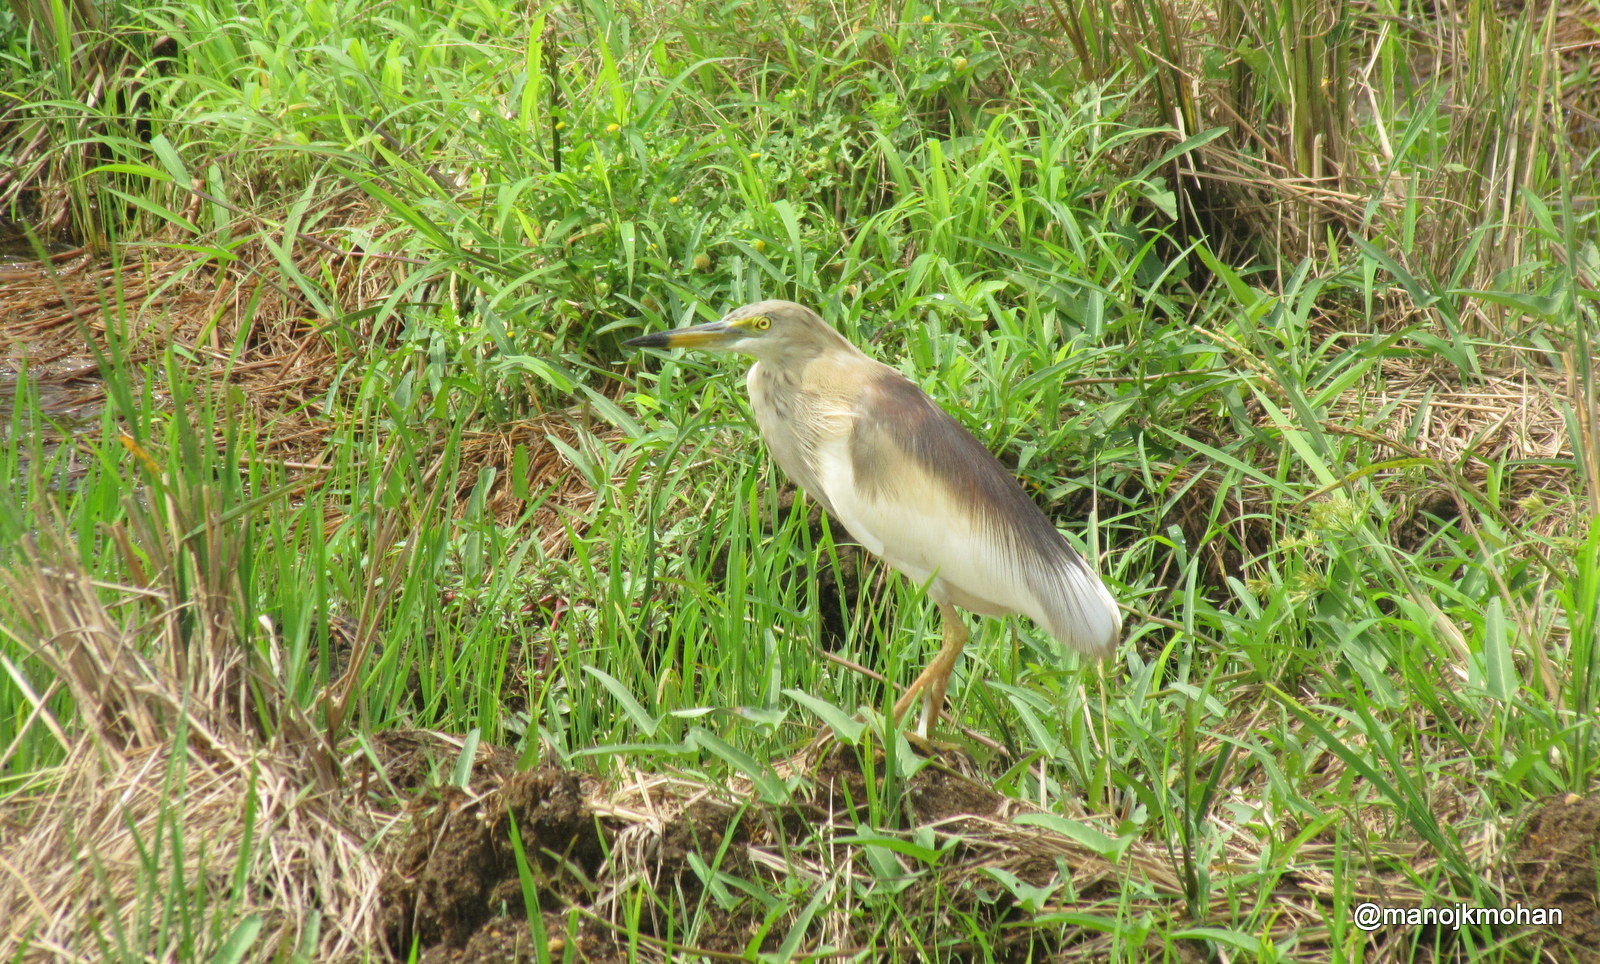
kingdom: Animalia
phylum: Chordata
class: Aves
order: Pelecaniformes
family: Ardeidae
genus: Ardeola
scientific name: Ardeola grayii
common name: Indian pond heron
